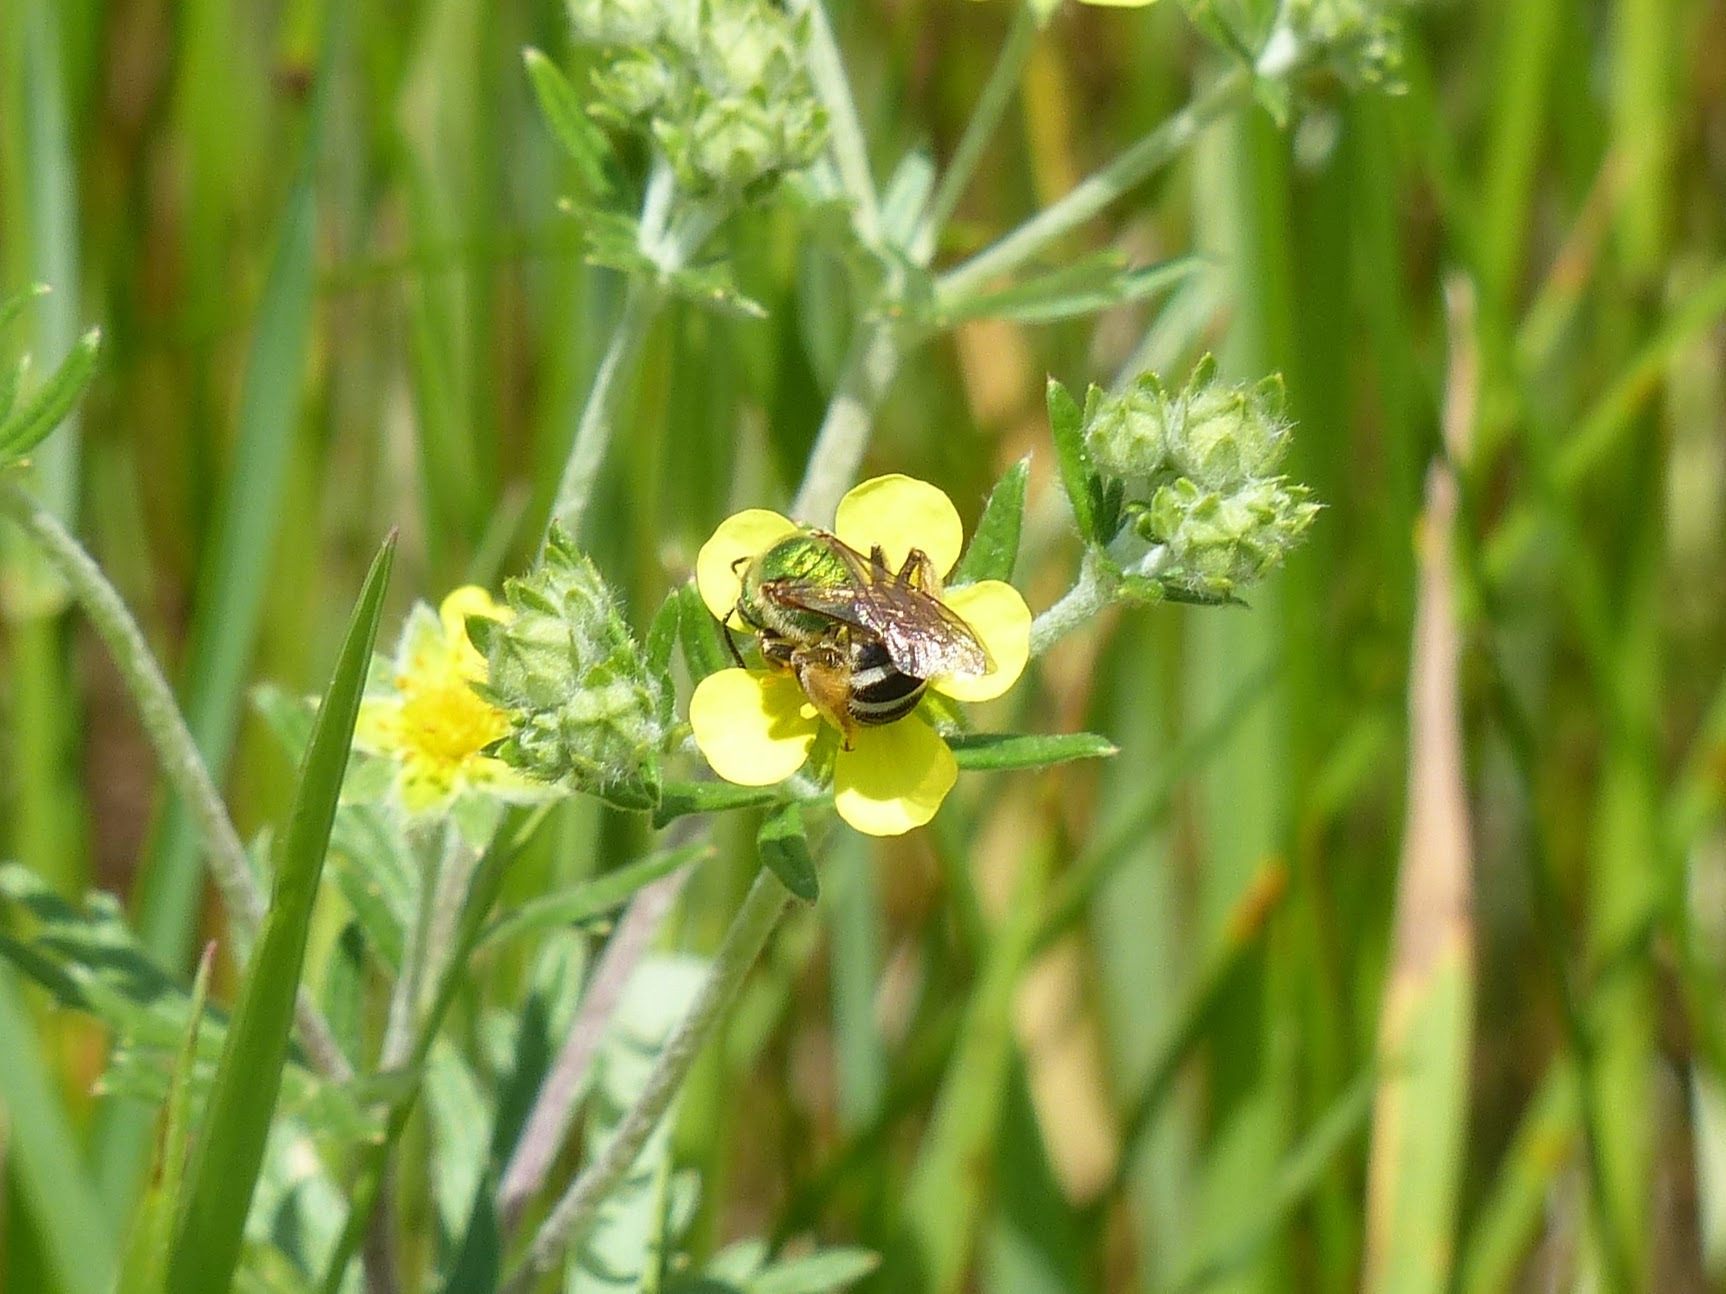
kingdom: Animalia
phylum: Arthropoda
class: Insecta
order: Hymenoptera
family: Halictidae
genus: Agapostemon
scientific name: Agapostemon virescens
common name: Bicolored striped sweat bee
